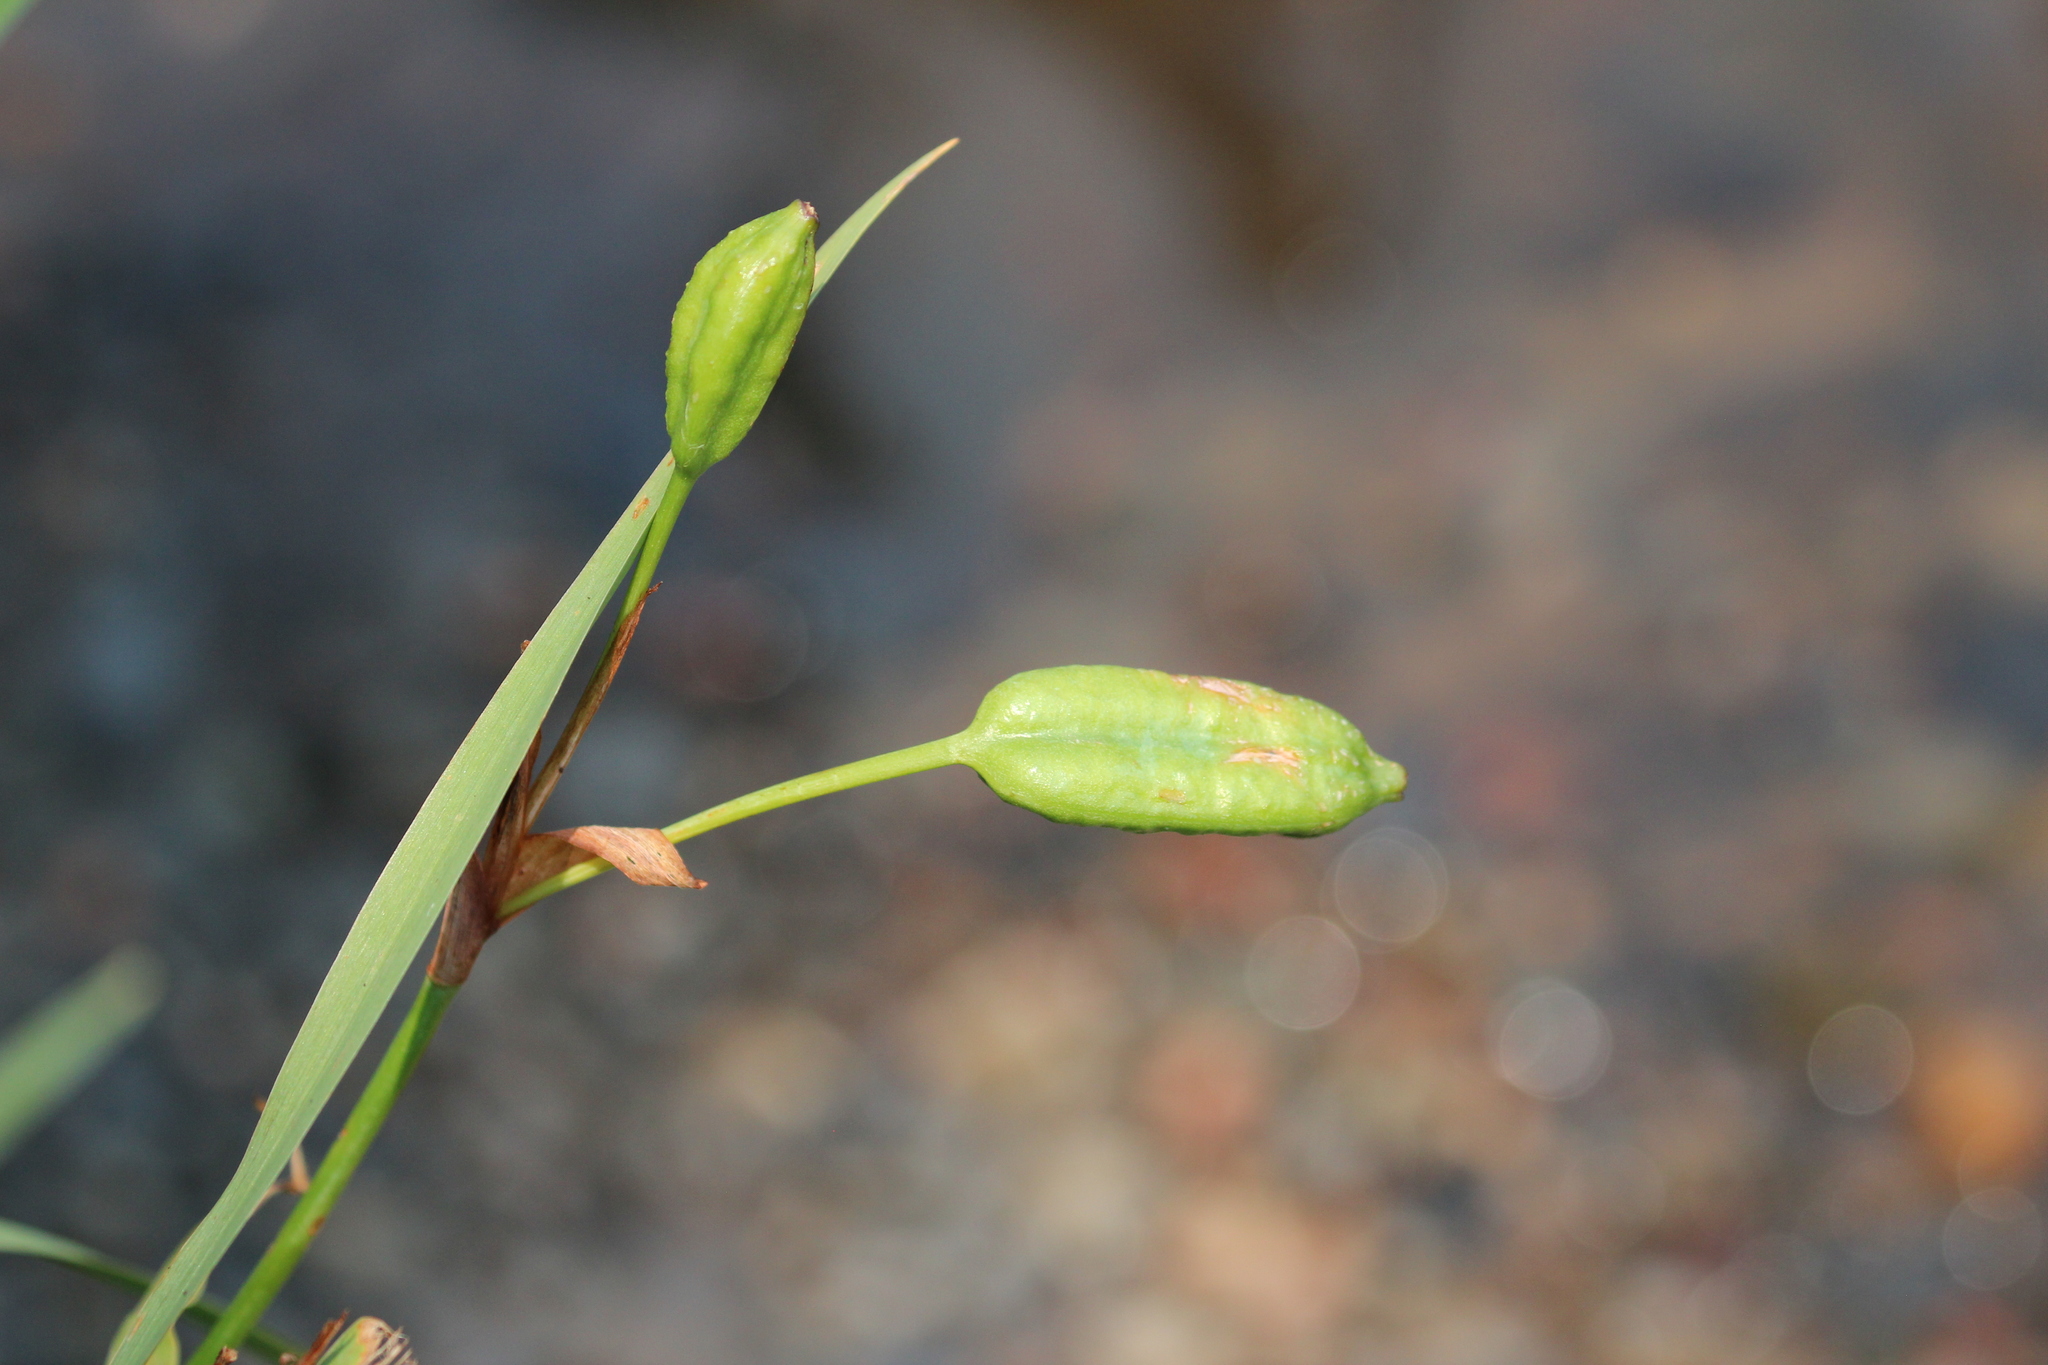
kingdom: Plantae
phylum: Tracheophyta
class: Liliopsida
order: Asparagales
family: Iridaceae
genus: Iris
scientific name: Iris versicolor
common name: Purple iris
